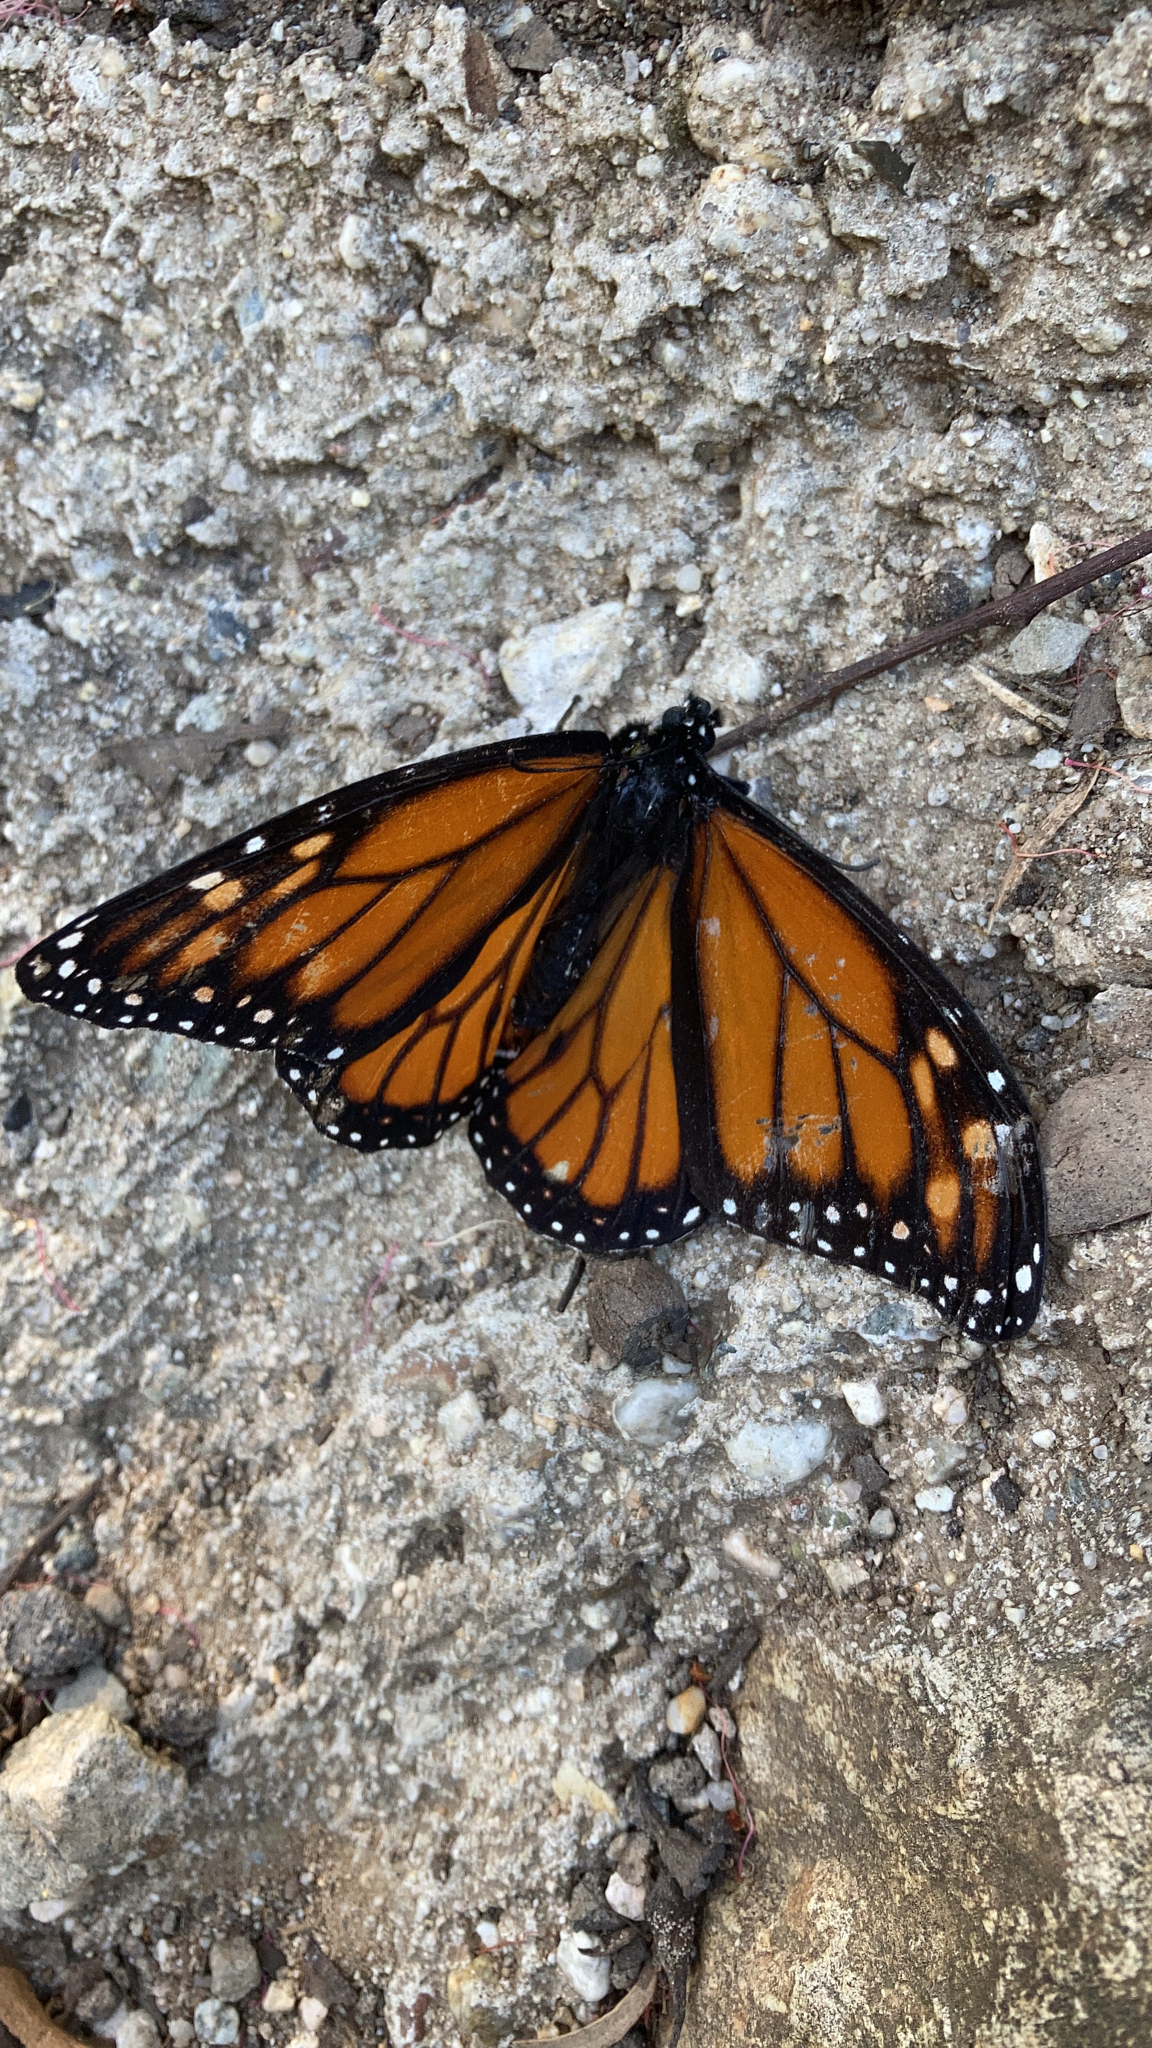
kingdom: Animalia
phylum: Arthropoda
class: Insecta
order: Lepidoptera
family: Nymphalidae
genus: Danaus
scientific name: Danaus plexippus
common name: Monarch
